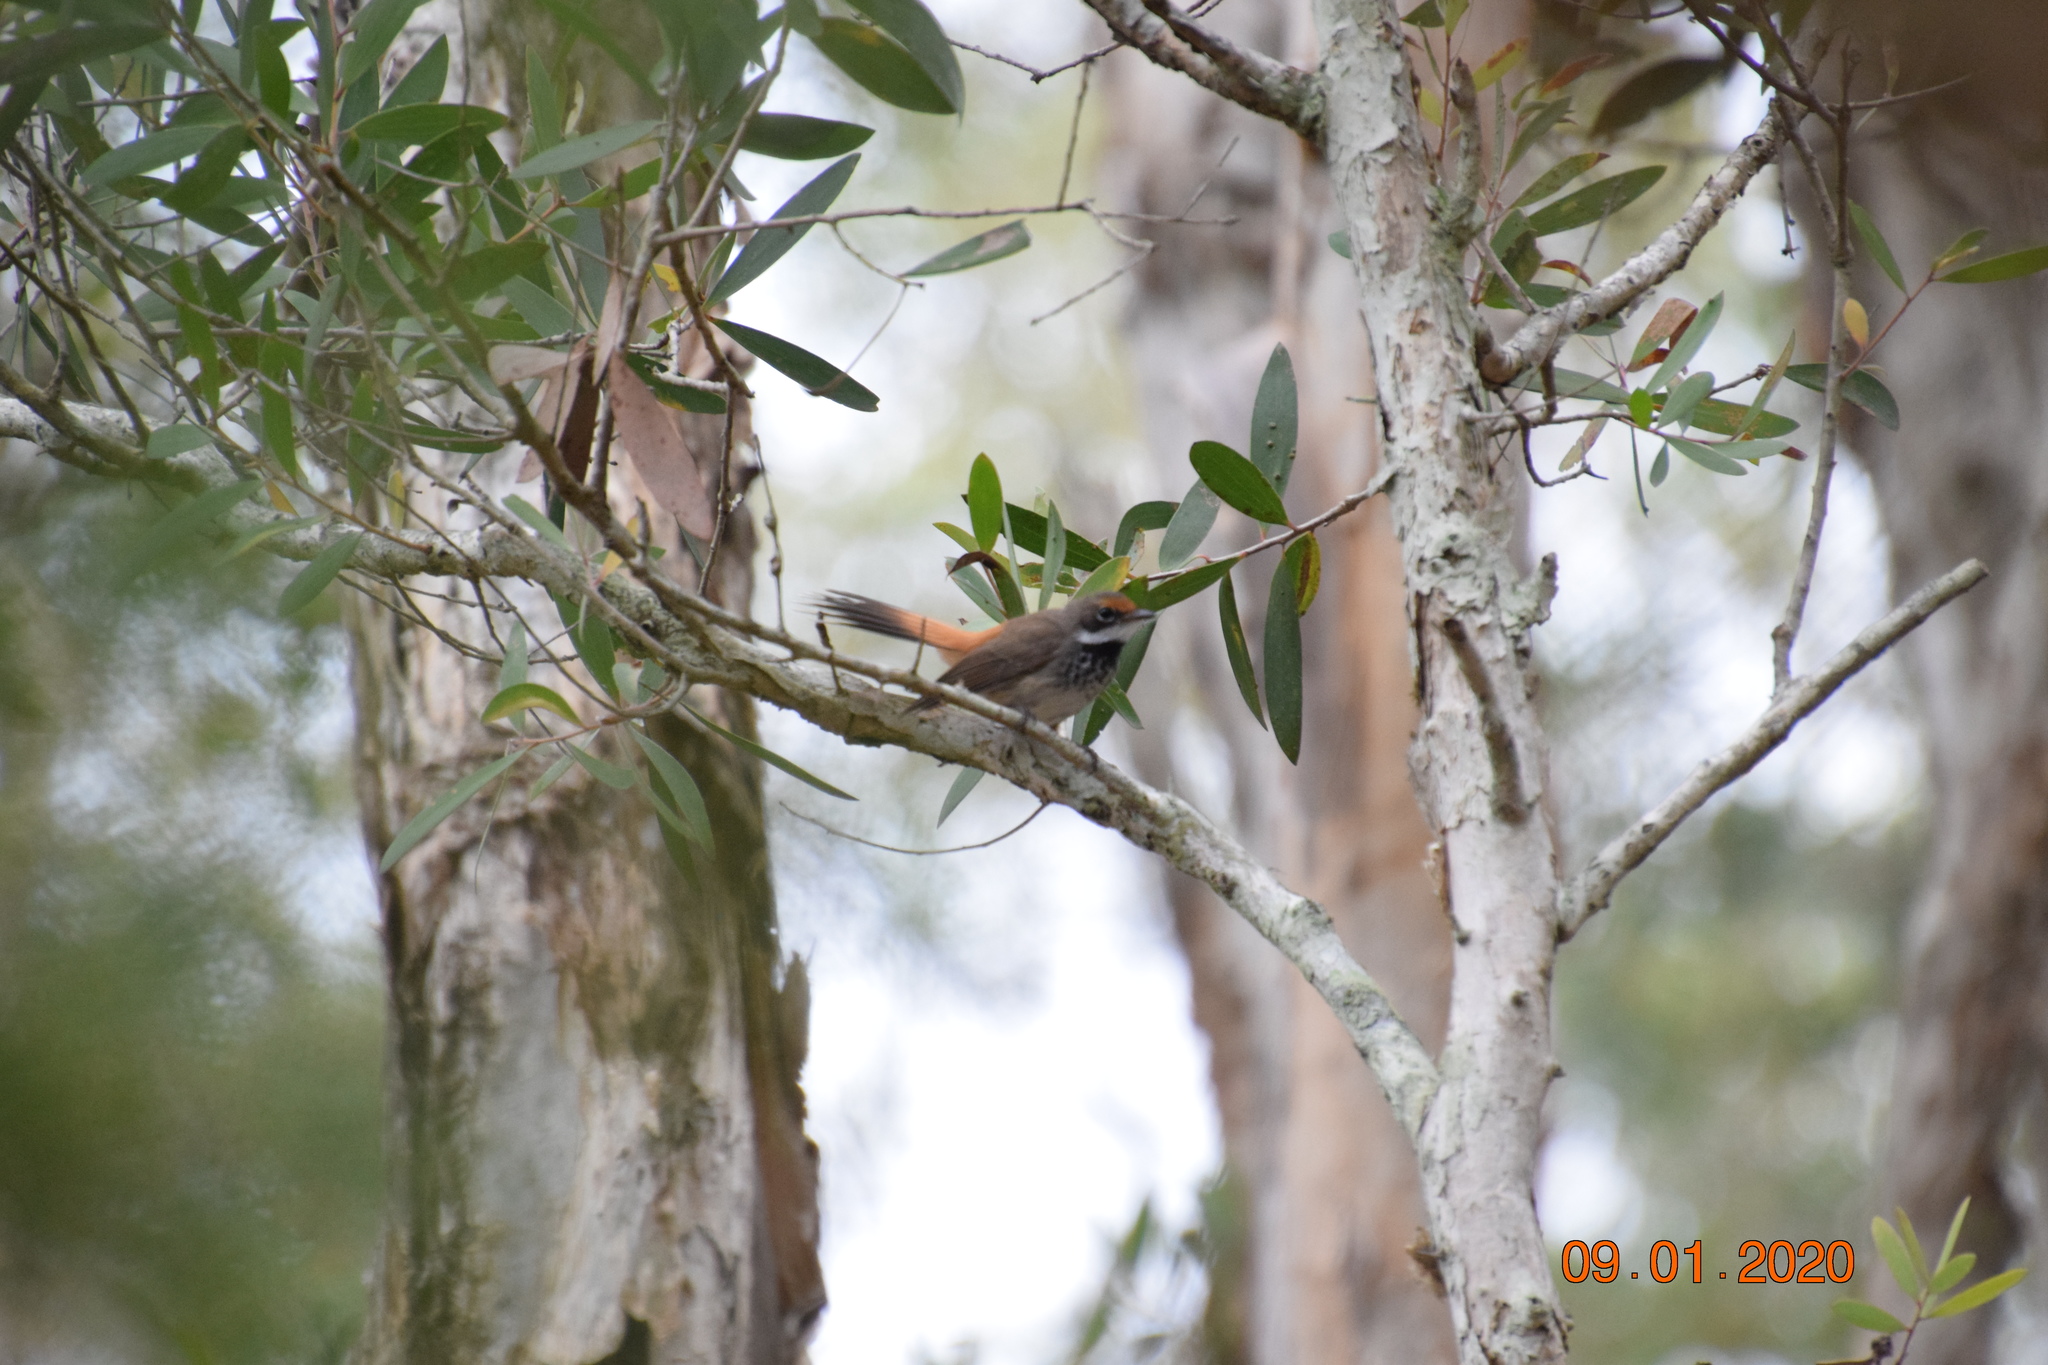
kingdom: Animalia
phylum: Chordata
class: Aves
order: Passeriformes
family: Rhipiduridae
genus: Rhipidura
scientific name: Rhipidura rufifrons
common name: Rufous fantail
